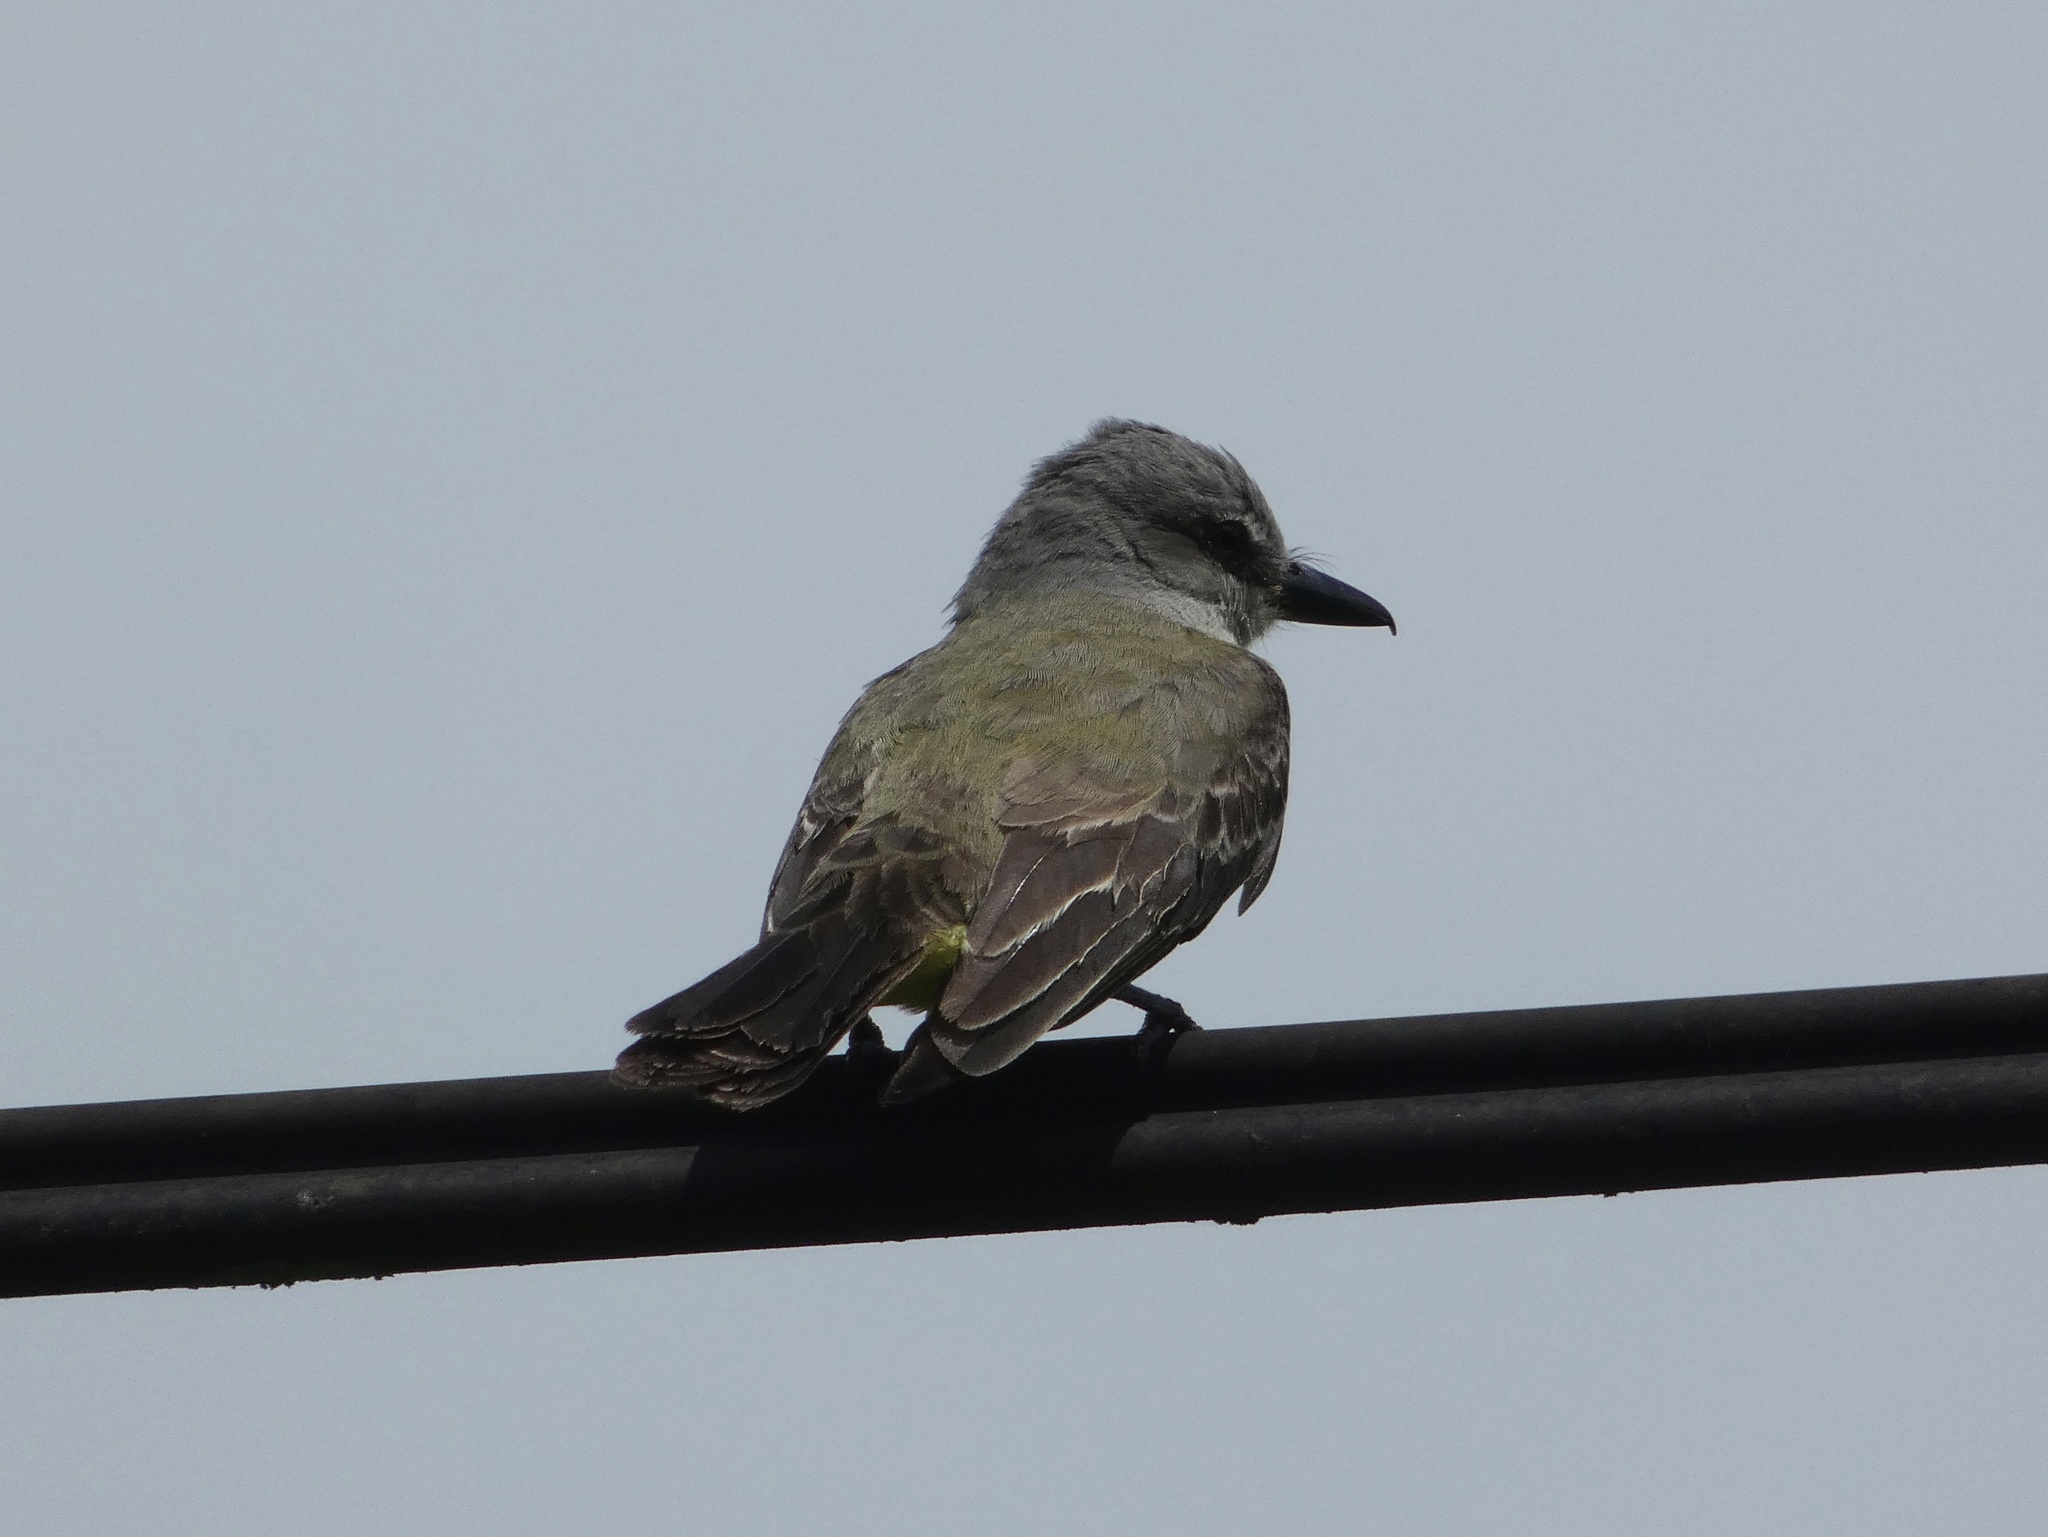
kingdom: Animalia
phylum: Chordata
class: Aves
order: Passeriformes
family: Tyrannidae
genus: Tyrannus
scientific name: Tyrannus melancholicus
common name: Tropical kingbird
